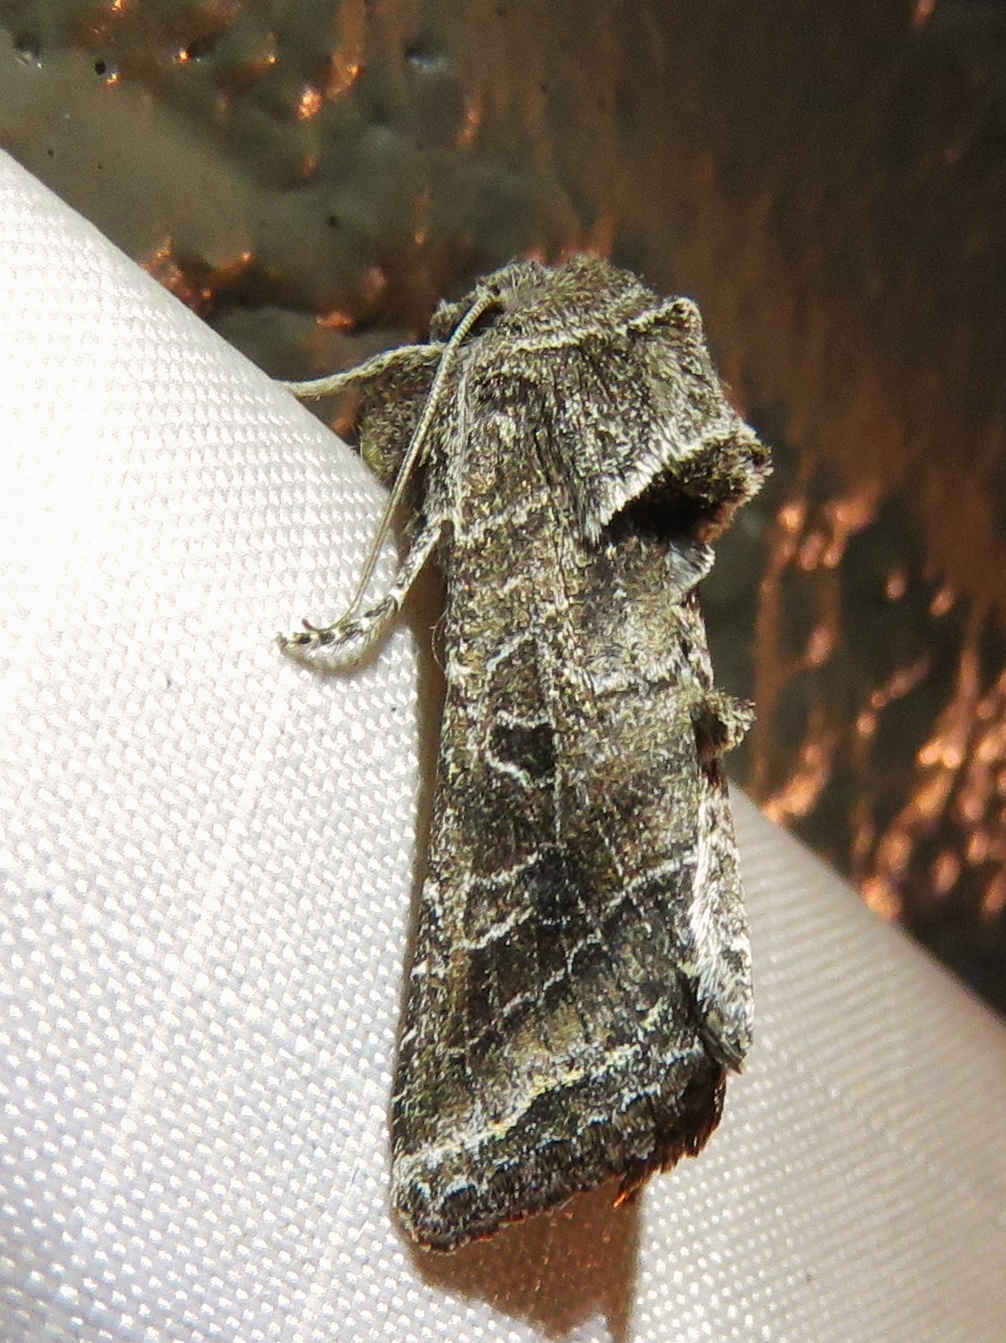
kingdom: Animalia
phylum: Arthropoda
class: Insecta
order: Lepidoptera
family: Noctuidae
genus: Lacinipolia
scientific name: Lacinipolia erecta
